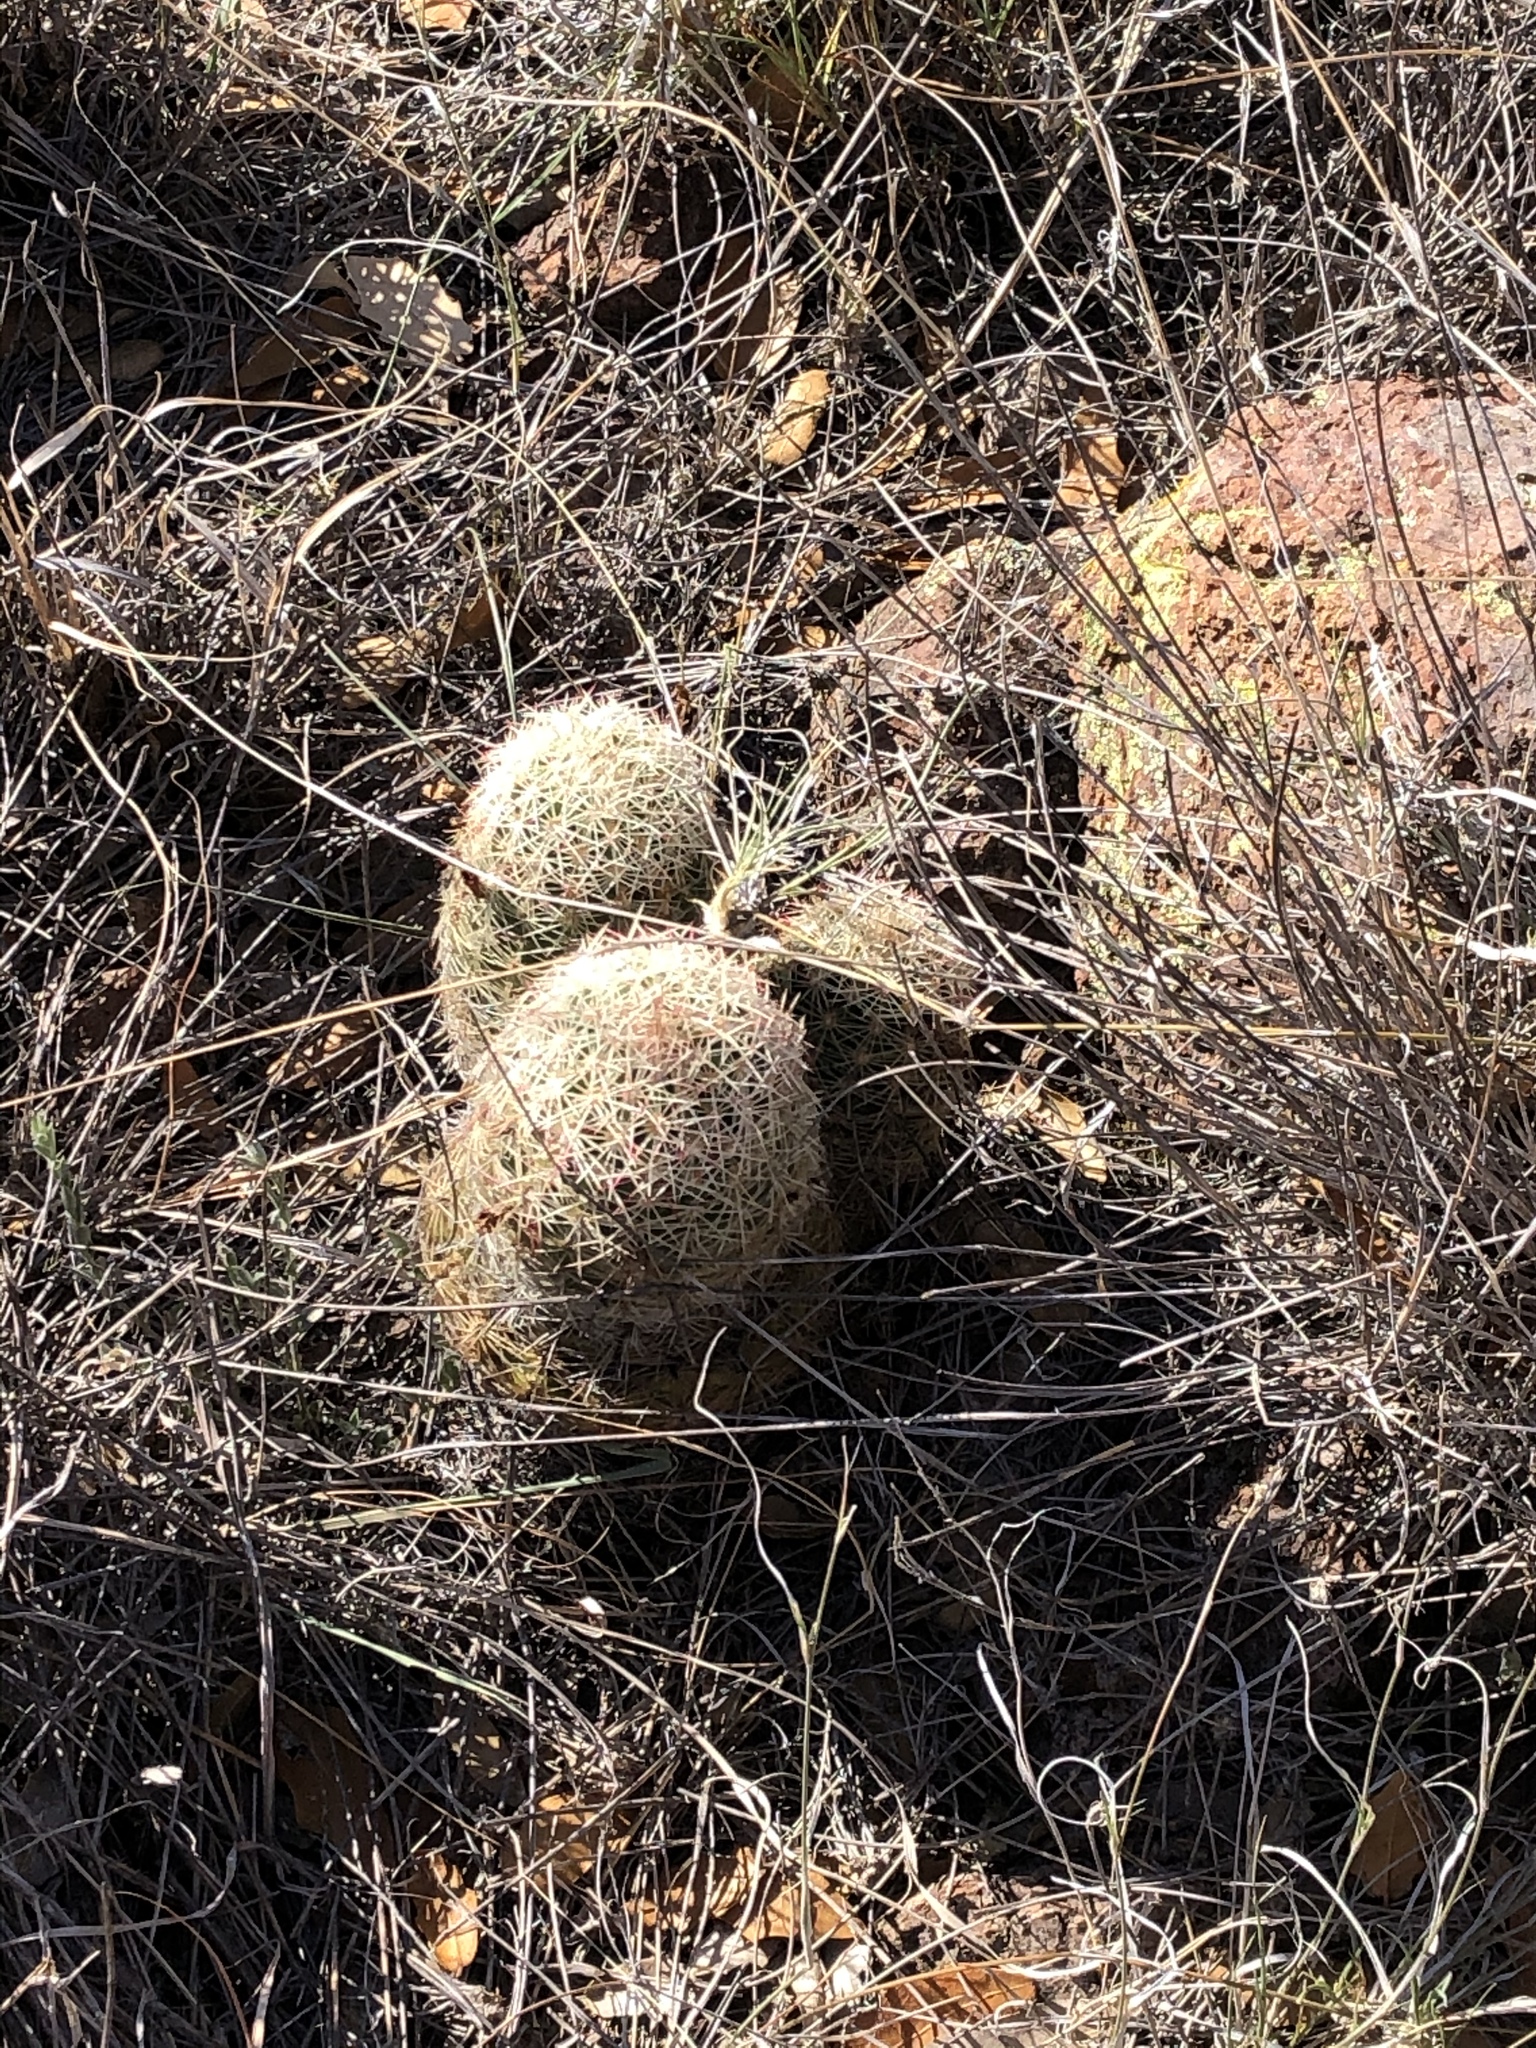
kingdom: Plantae
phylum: Tracheophyta
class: Magnoliopsida
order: Caryophyllales
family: Cactaceae
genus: Echinocereus
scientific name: Echinocereus viridiflorus
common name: Nylon hedgehog cactus
